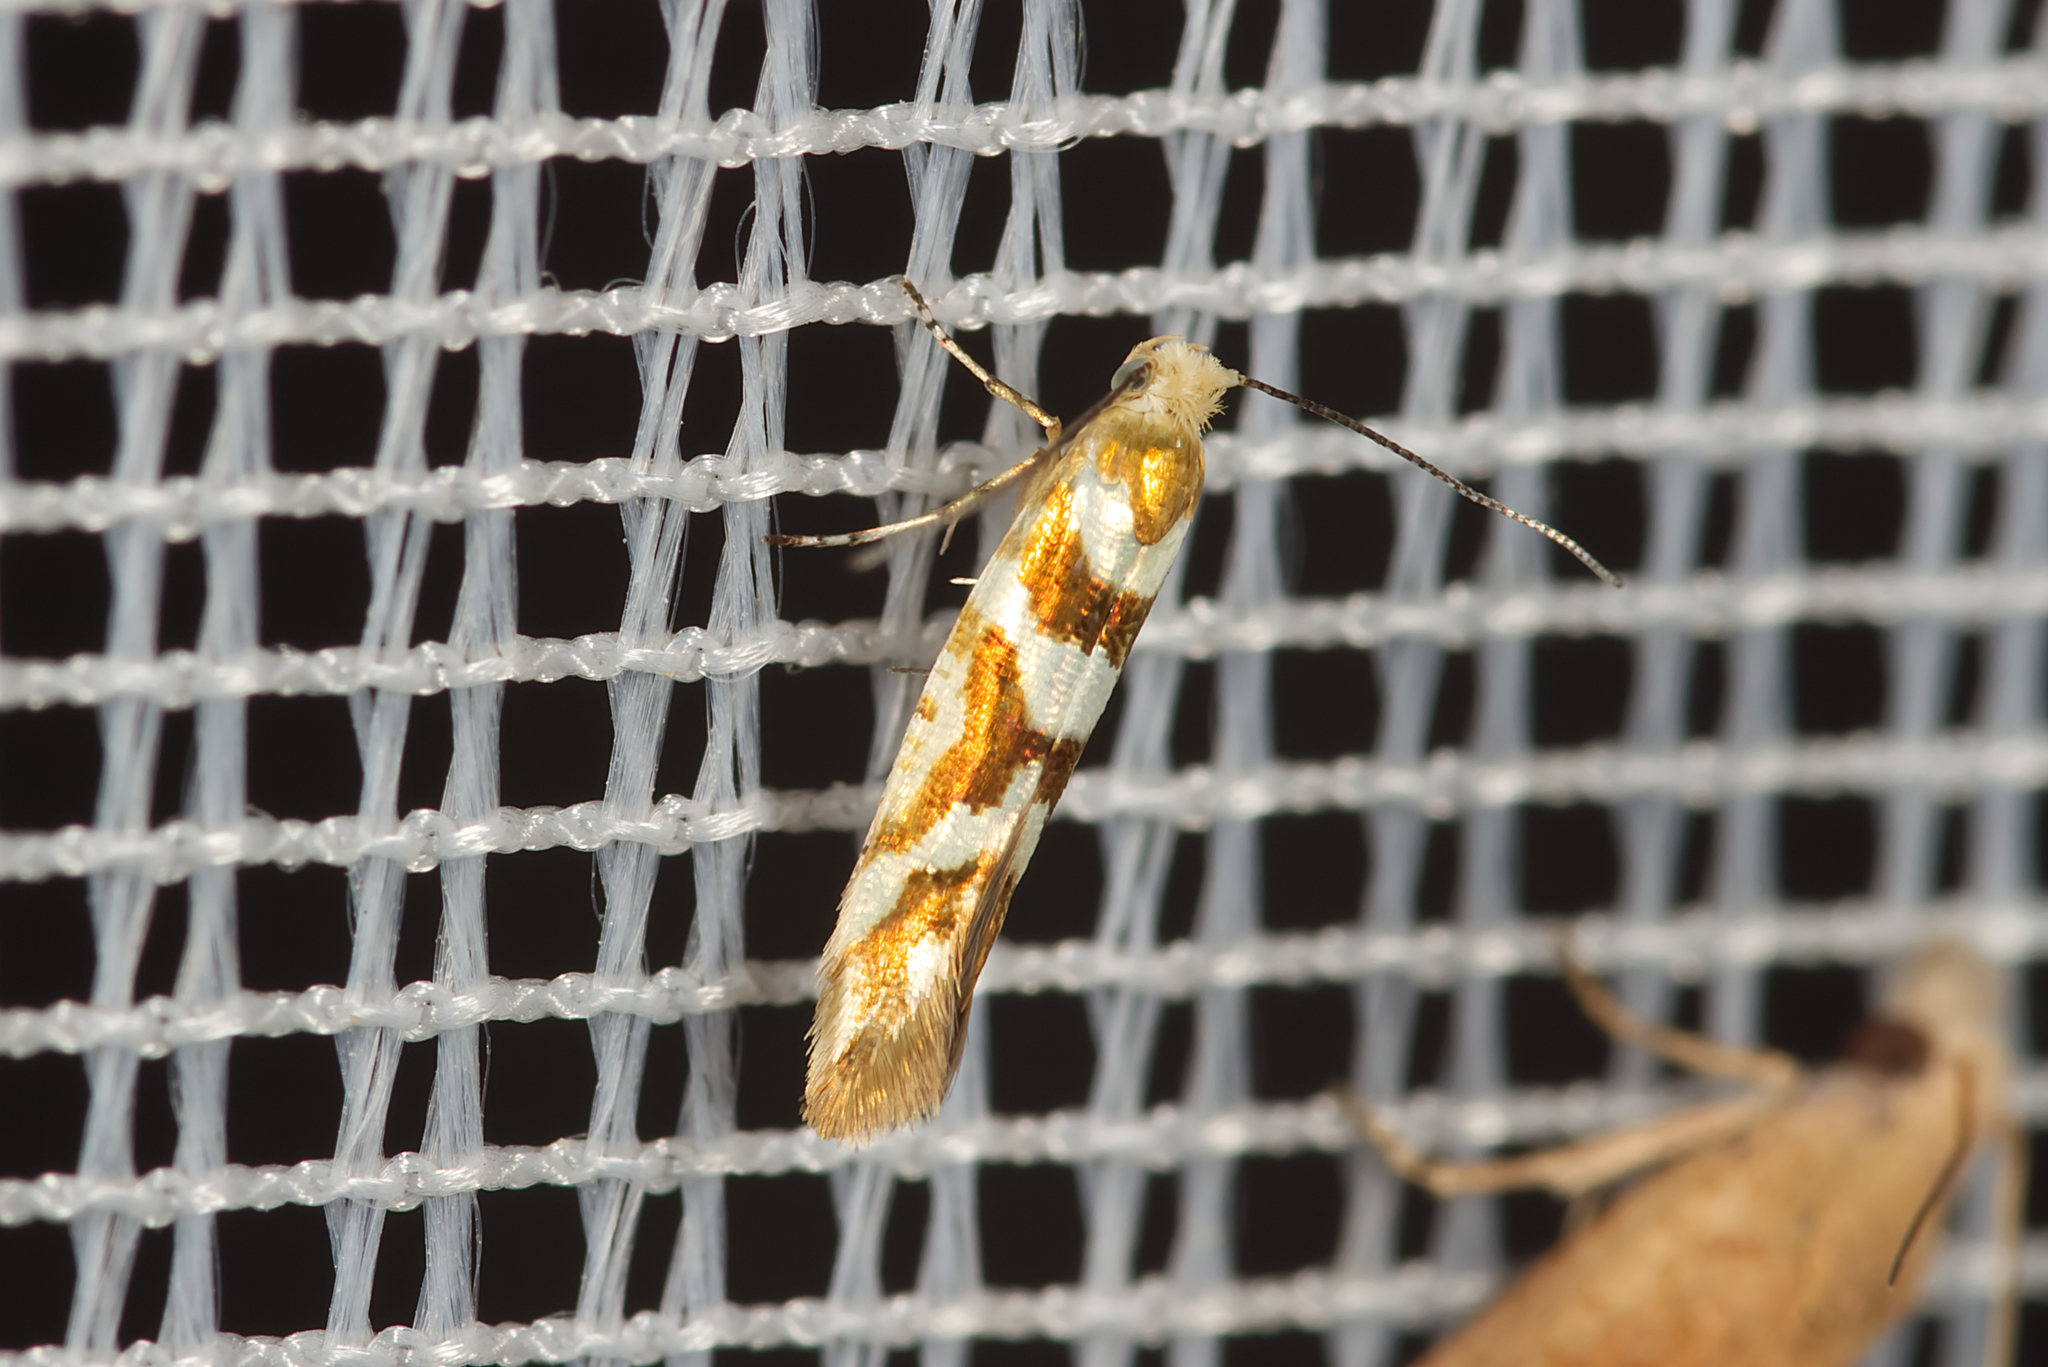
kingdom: Animalia
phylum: Arthropoda
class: Insecta
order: Lepidoptera
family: Argyresthiidae
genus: Argyresthia
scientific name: Argyresthia goedartella
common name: Golden argent
